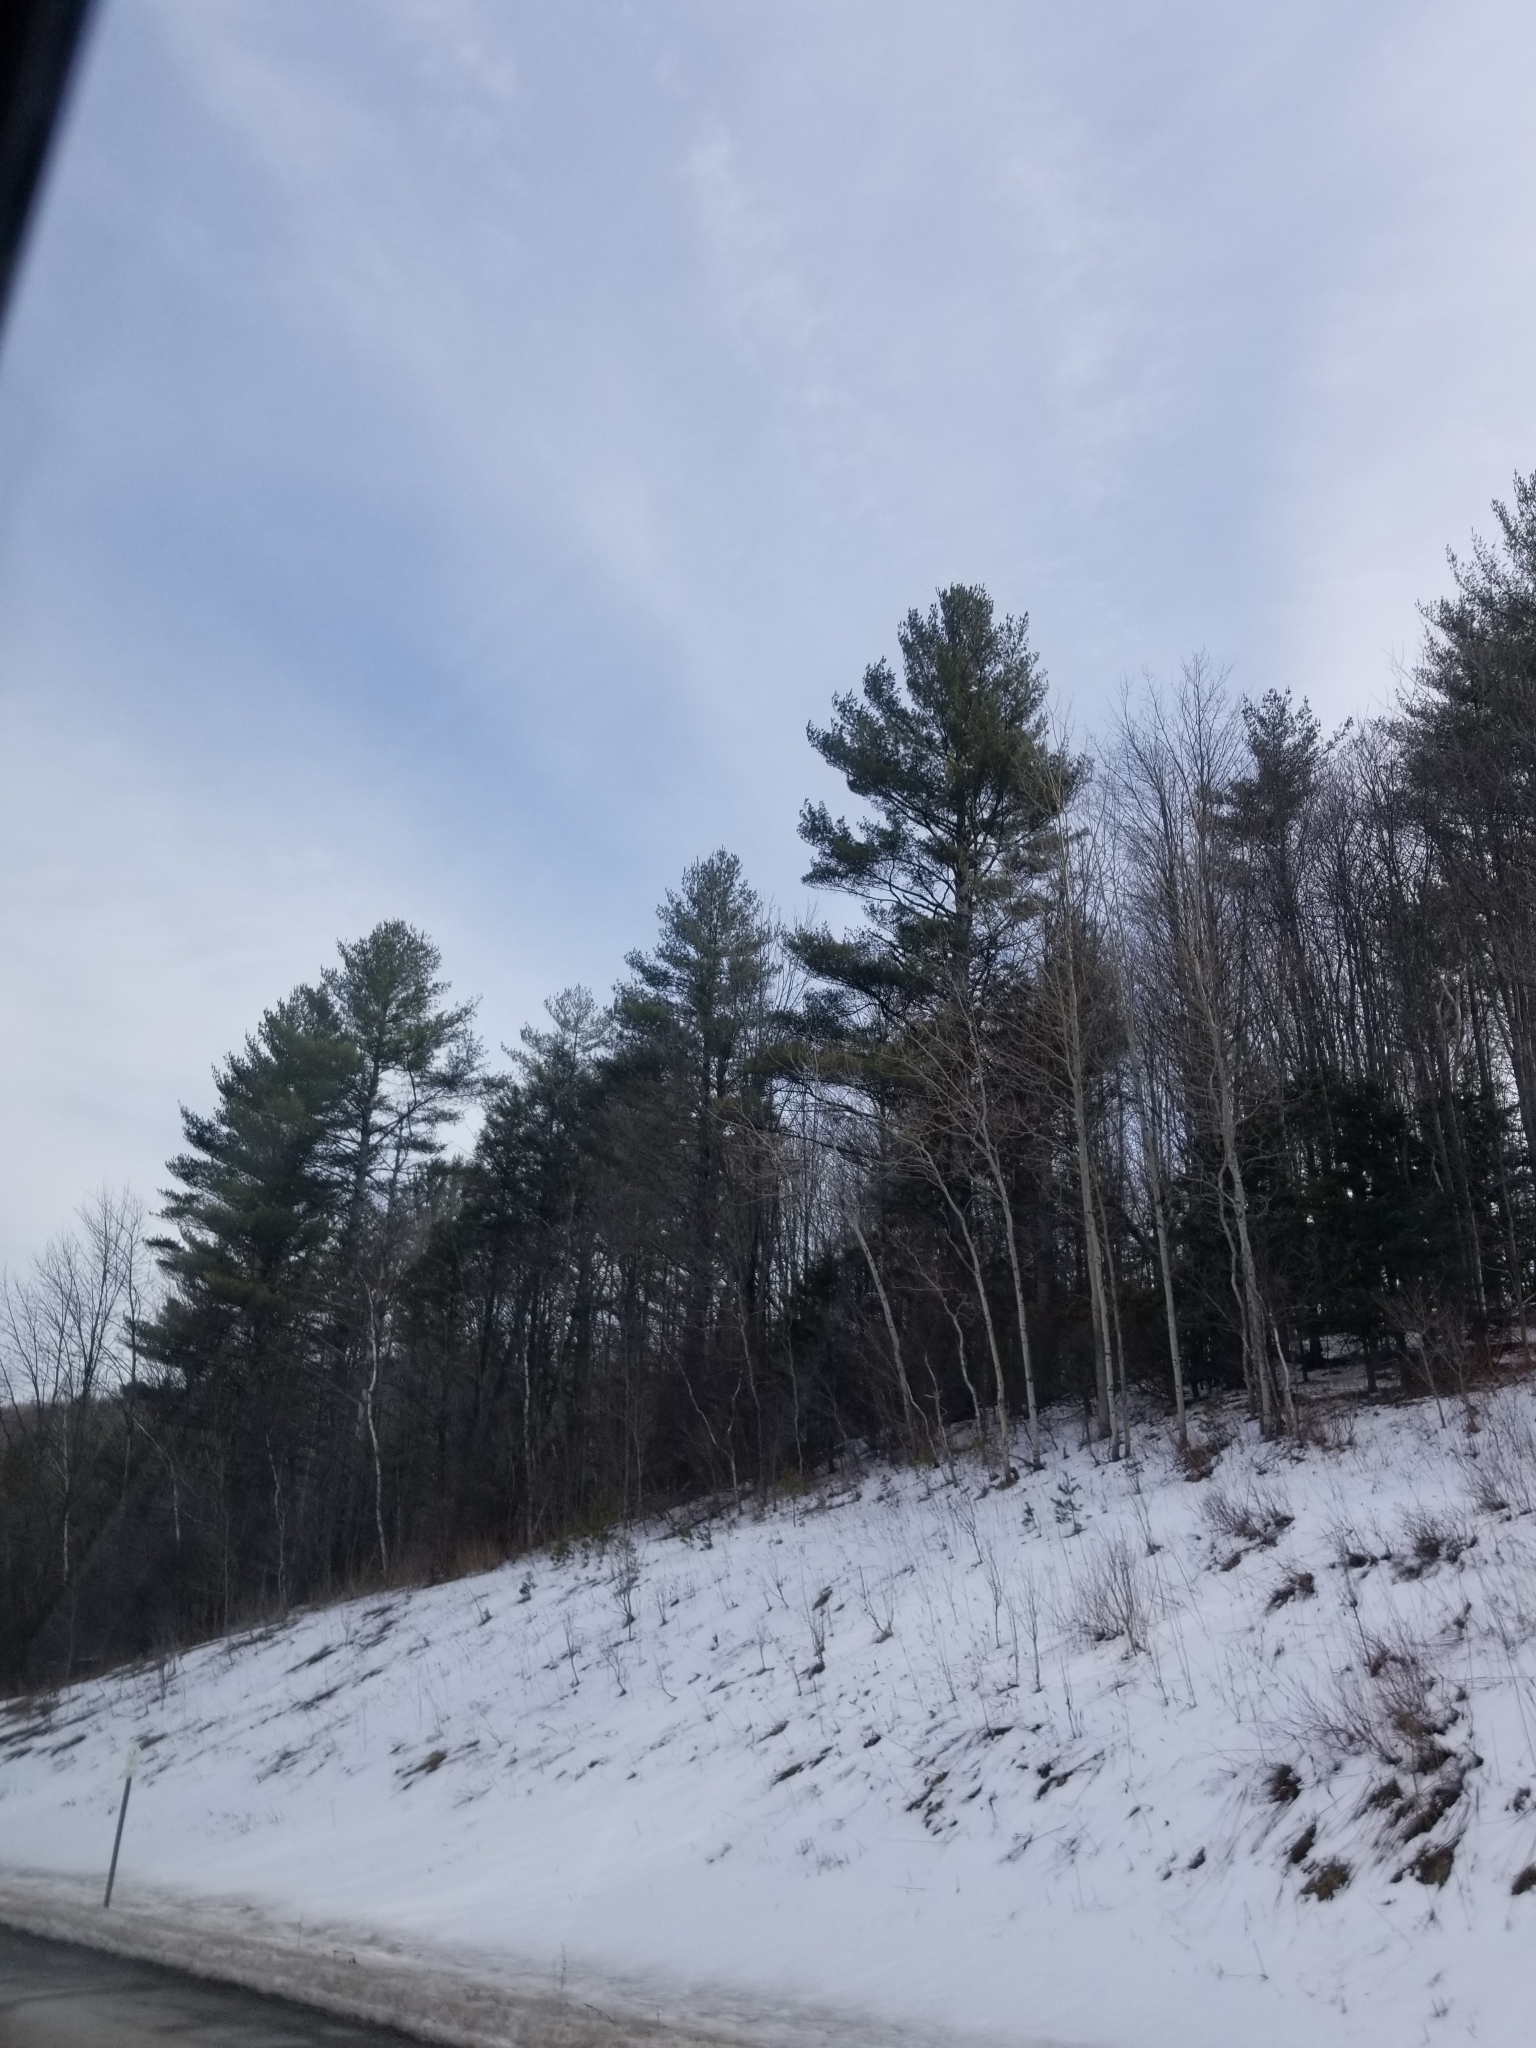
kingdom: Plantae
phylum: Tracheophyta
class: Pinopsida
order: Pinales
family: Pinaceae
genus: Pinus
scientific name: Pinus strobus
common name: Weymouth pine
